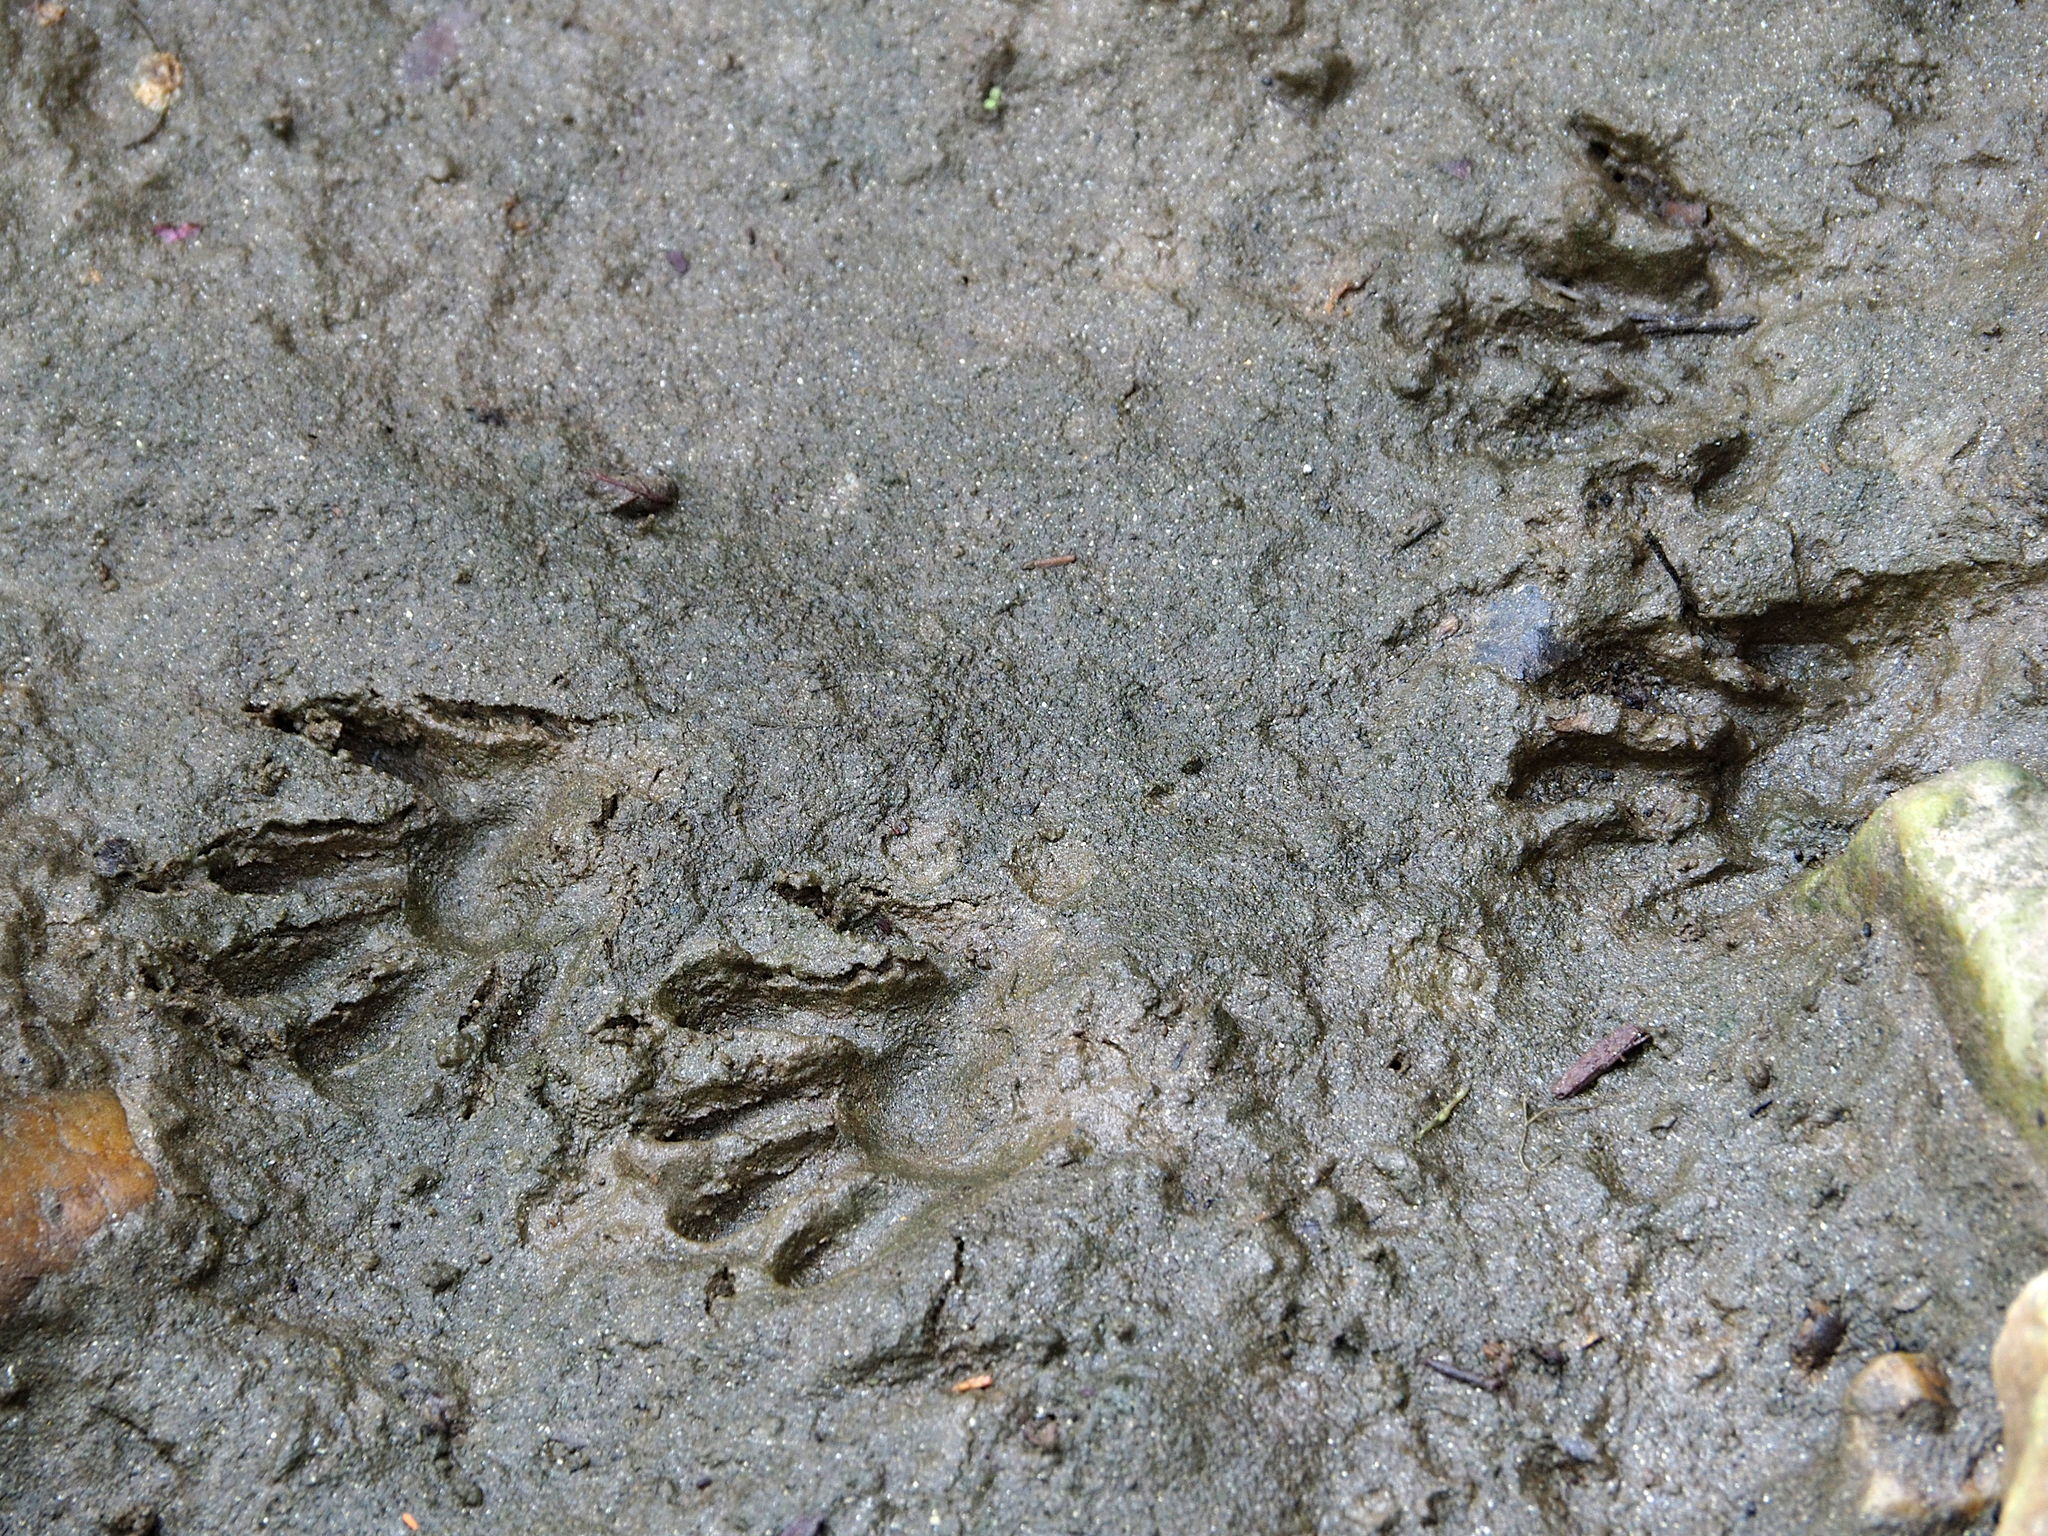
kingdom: Animalia
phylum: Chordata
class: Mammalia
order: Carnivora
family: Procyonidae
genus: Procyon
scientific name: Procyon lotor
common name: Raccoon
